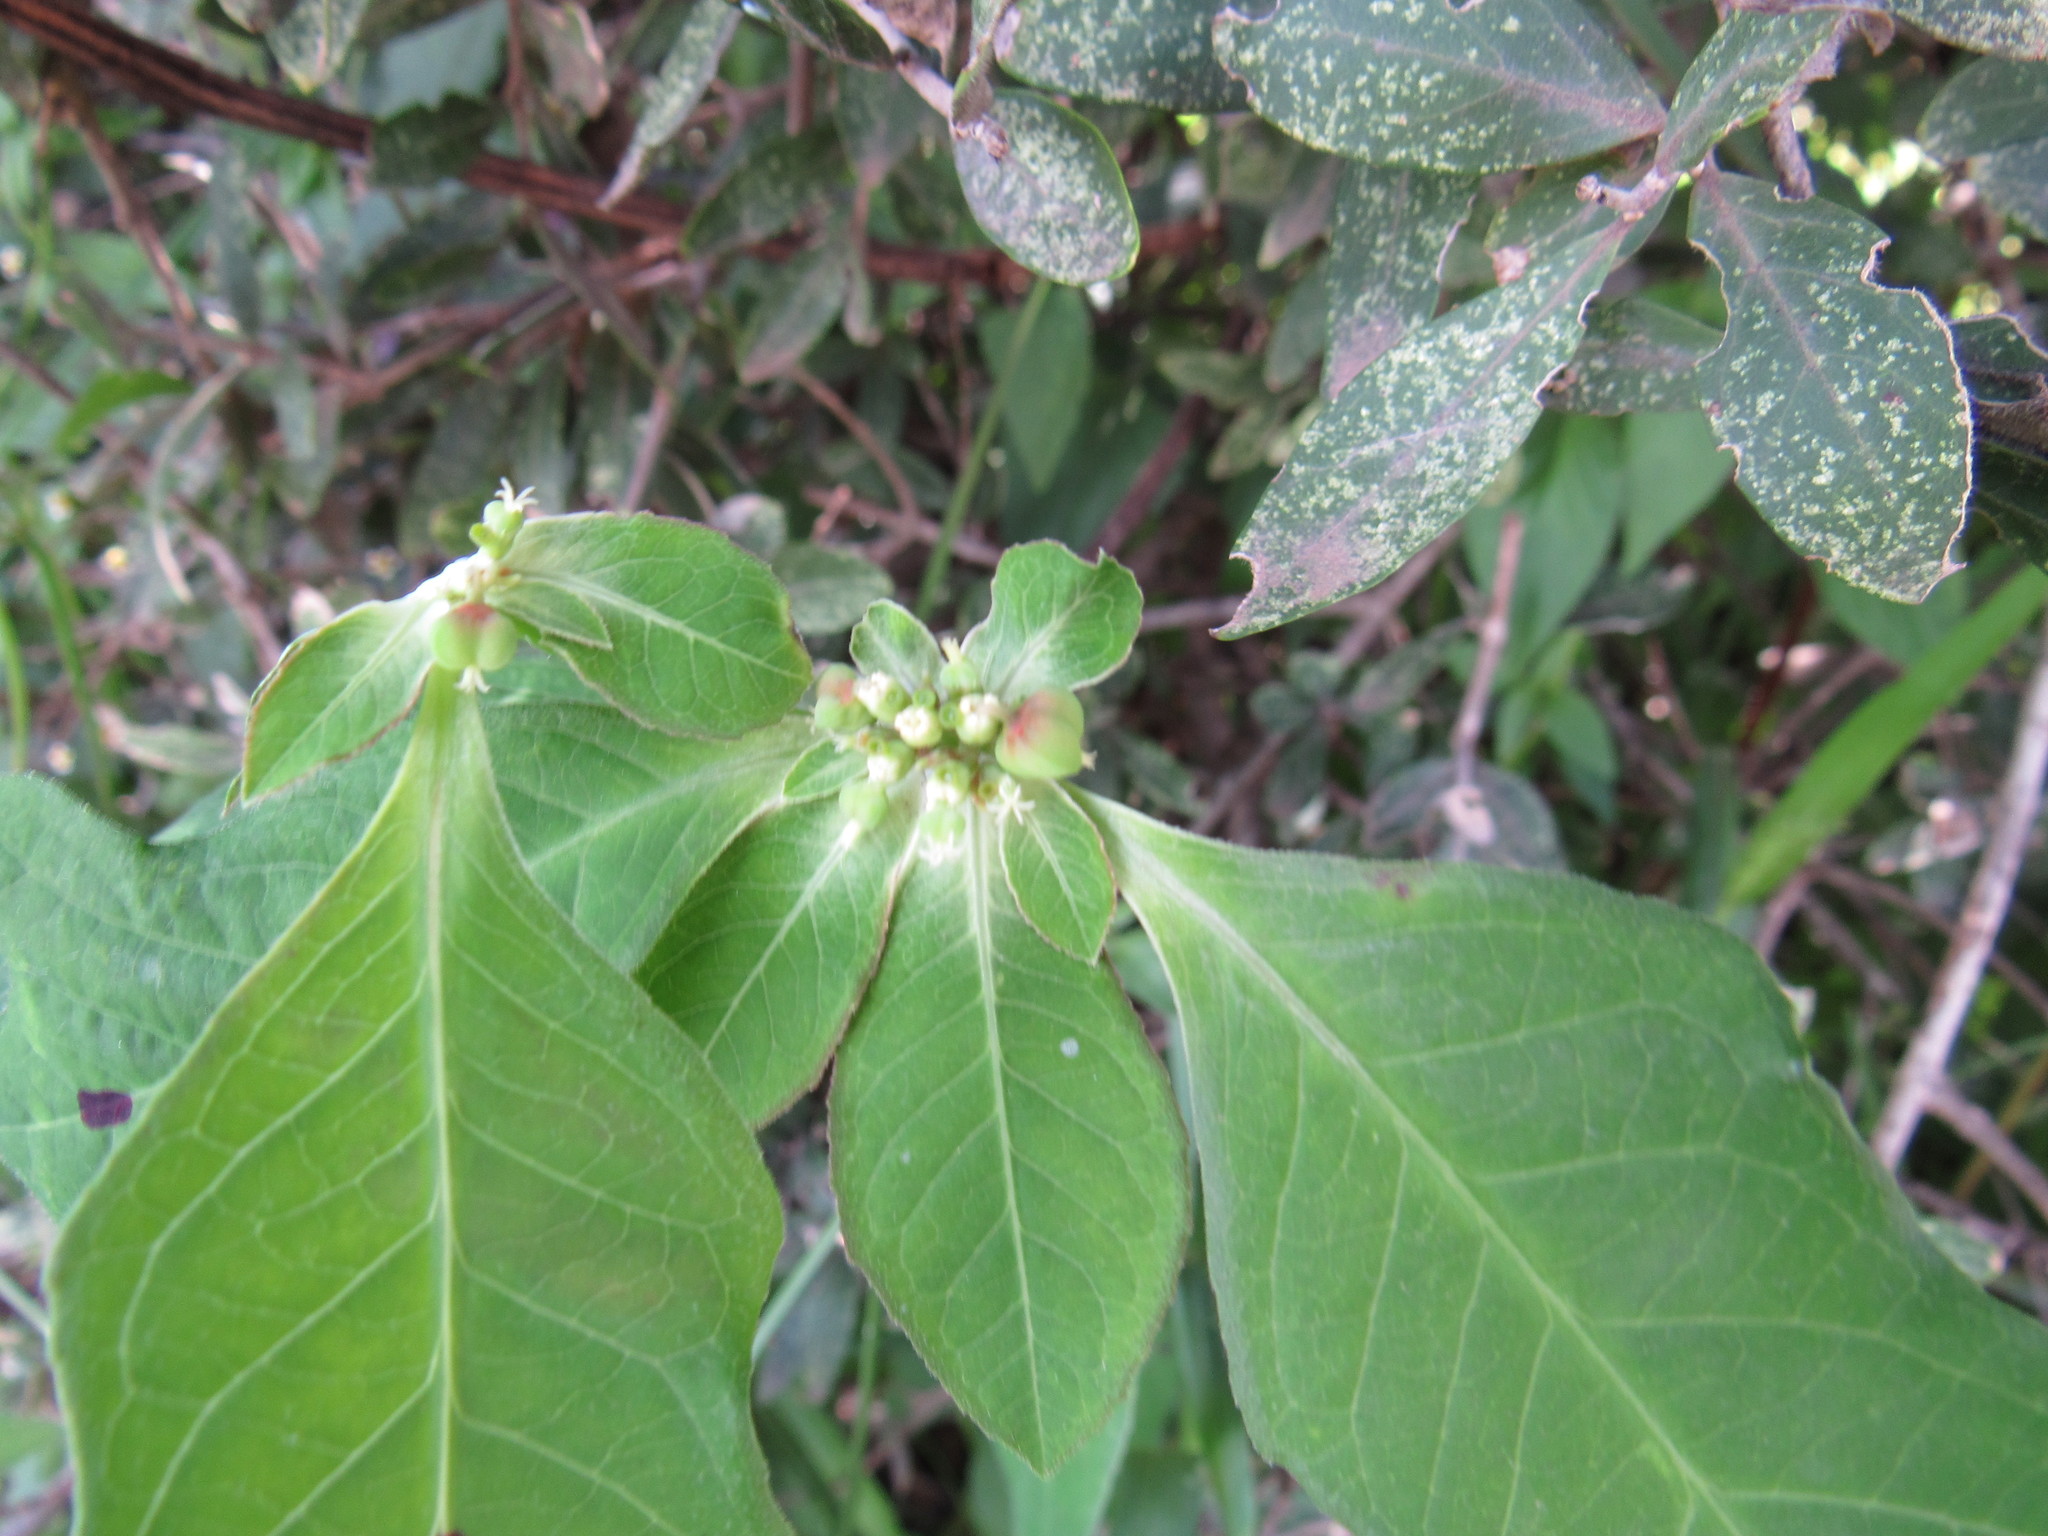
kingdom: Plantae
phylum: Tracheophyta
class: Magnoliopsida
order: Malpighiales
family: Euphorbiaceae
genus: Euphorbia
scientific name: Euphorbia heterophylla
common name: Mexican fireplant
